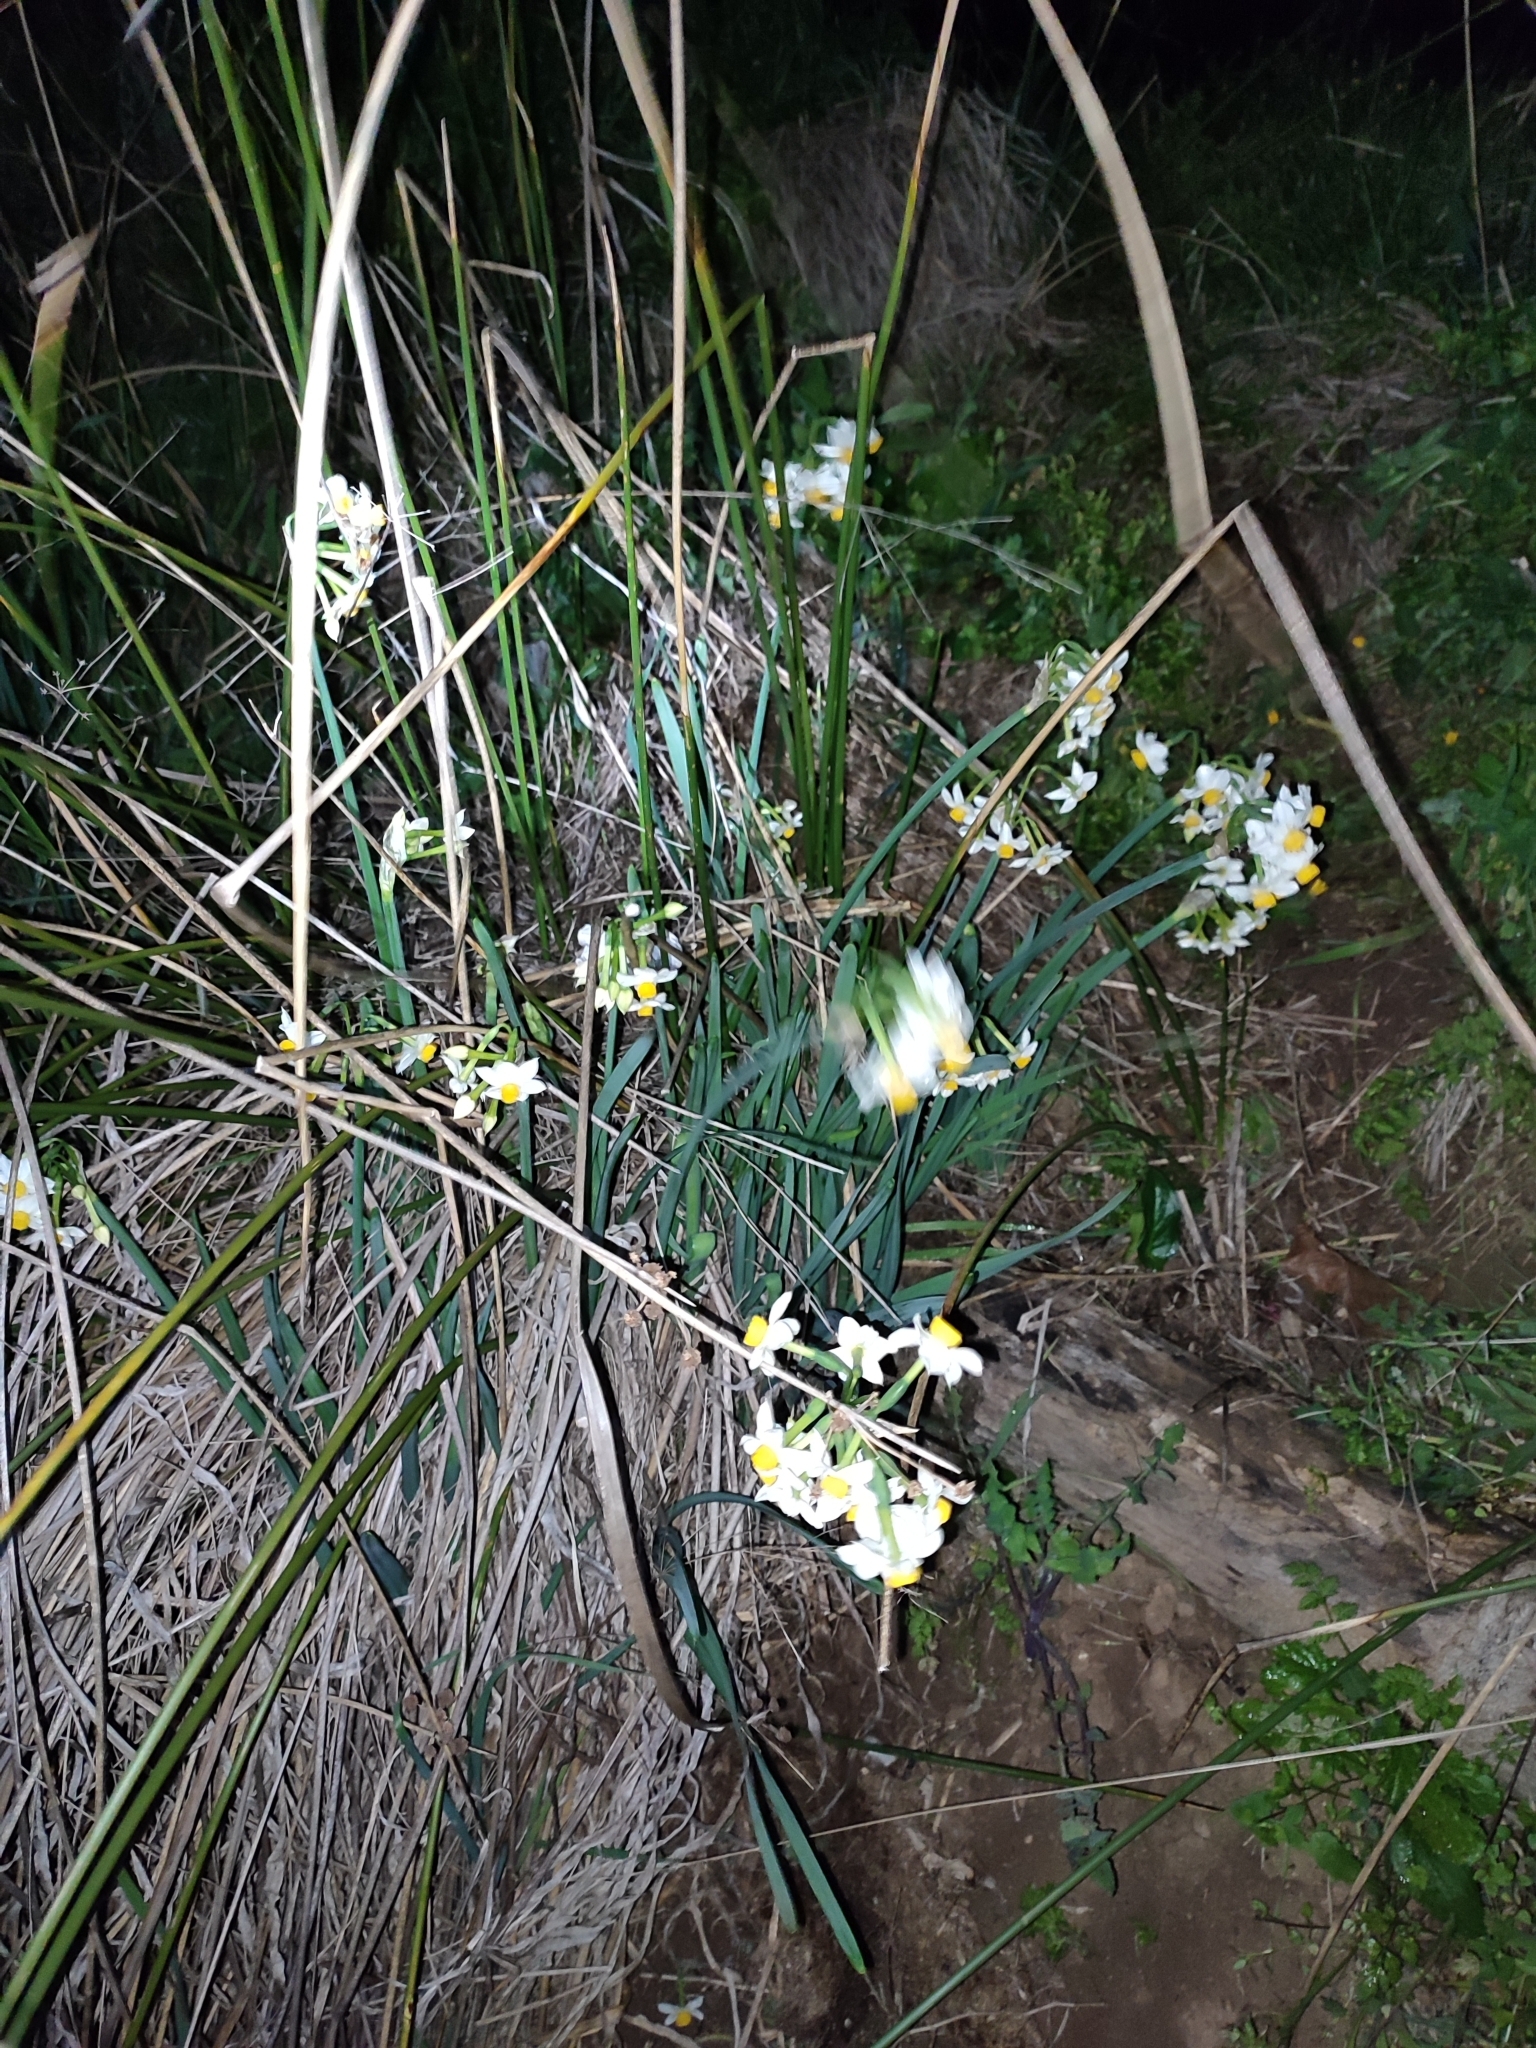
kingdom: Plantae
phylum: Tracheophyta
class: Liliopsida
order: Asparagales
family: Amaryllidaceae
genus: Narcissus
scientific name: Narcissus tazetta
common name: Bunch-flowered daffodil
